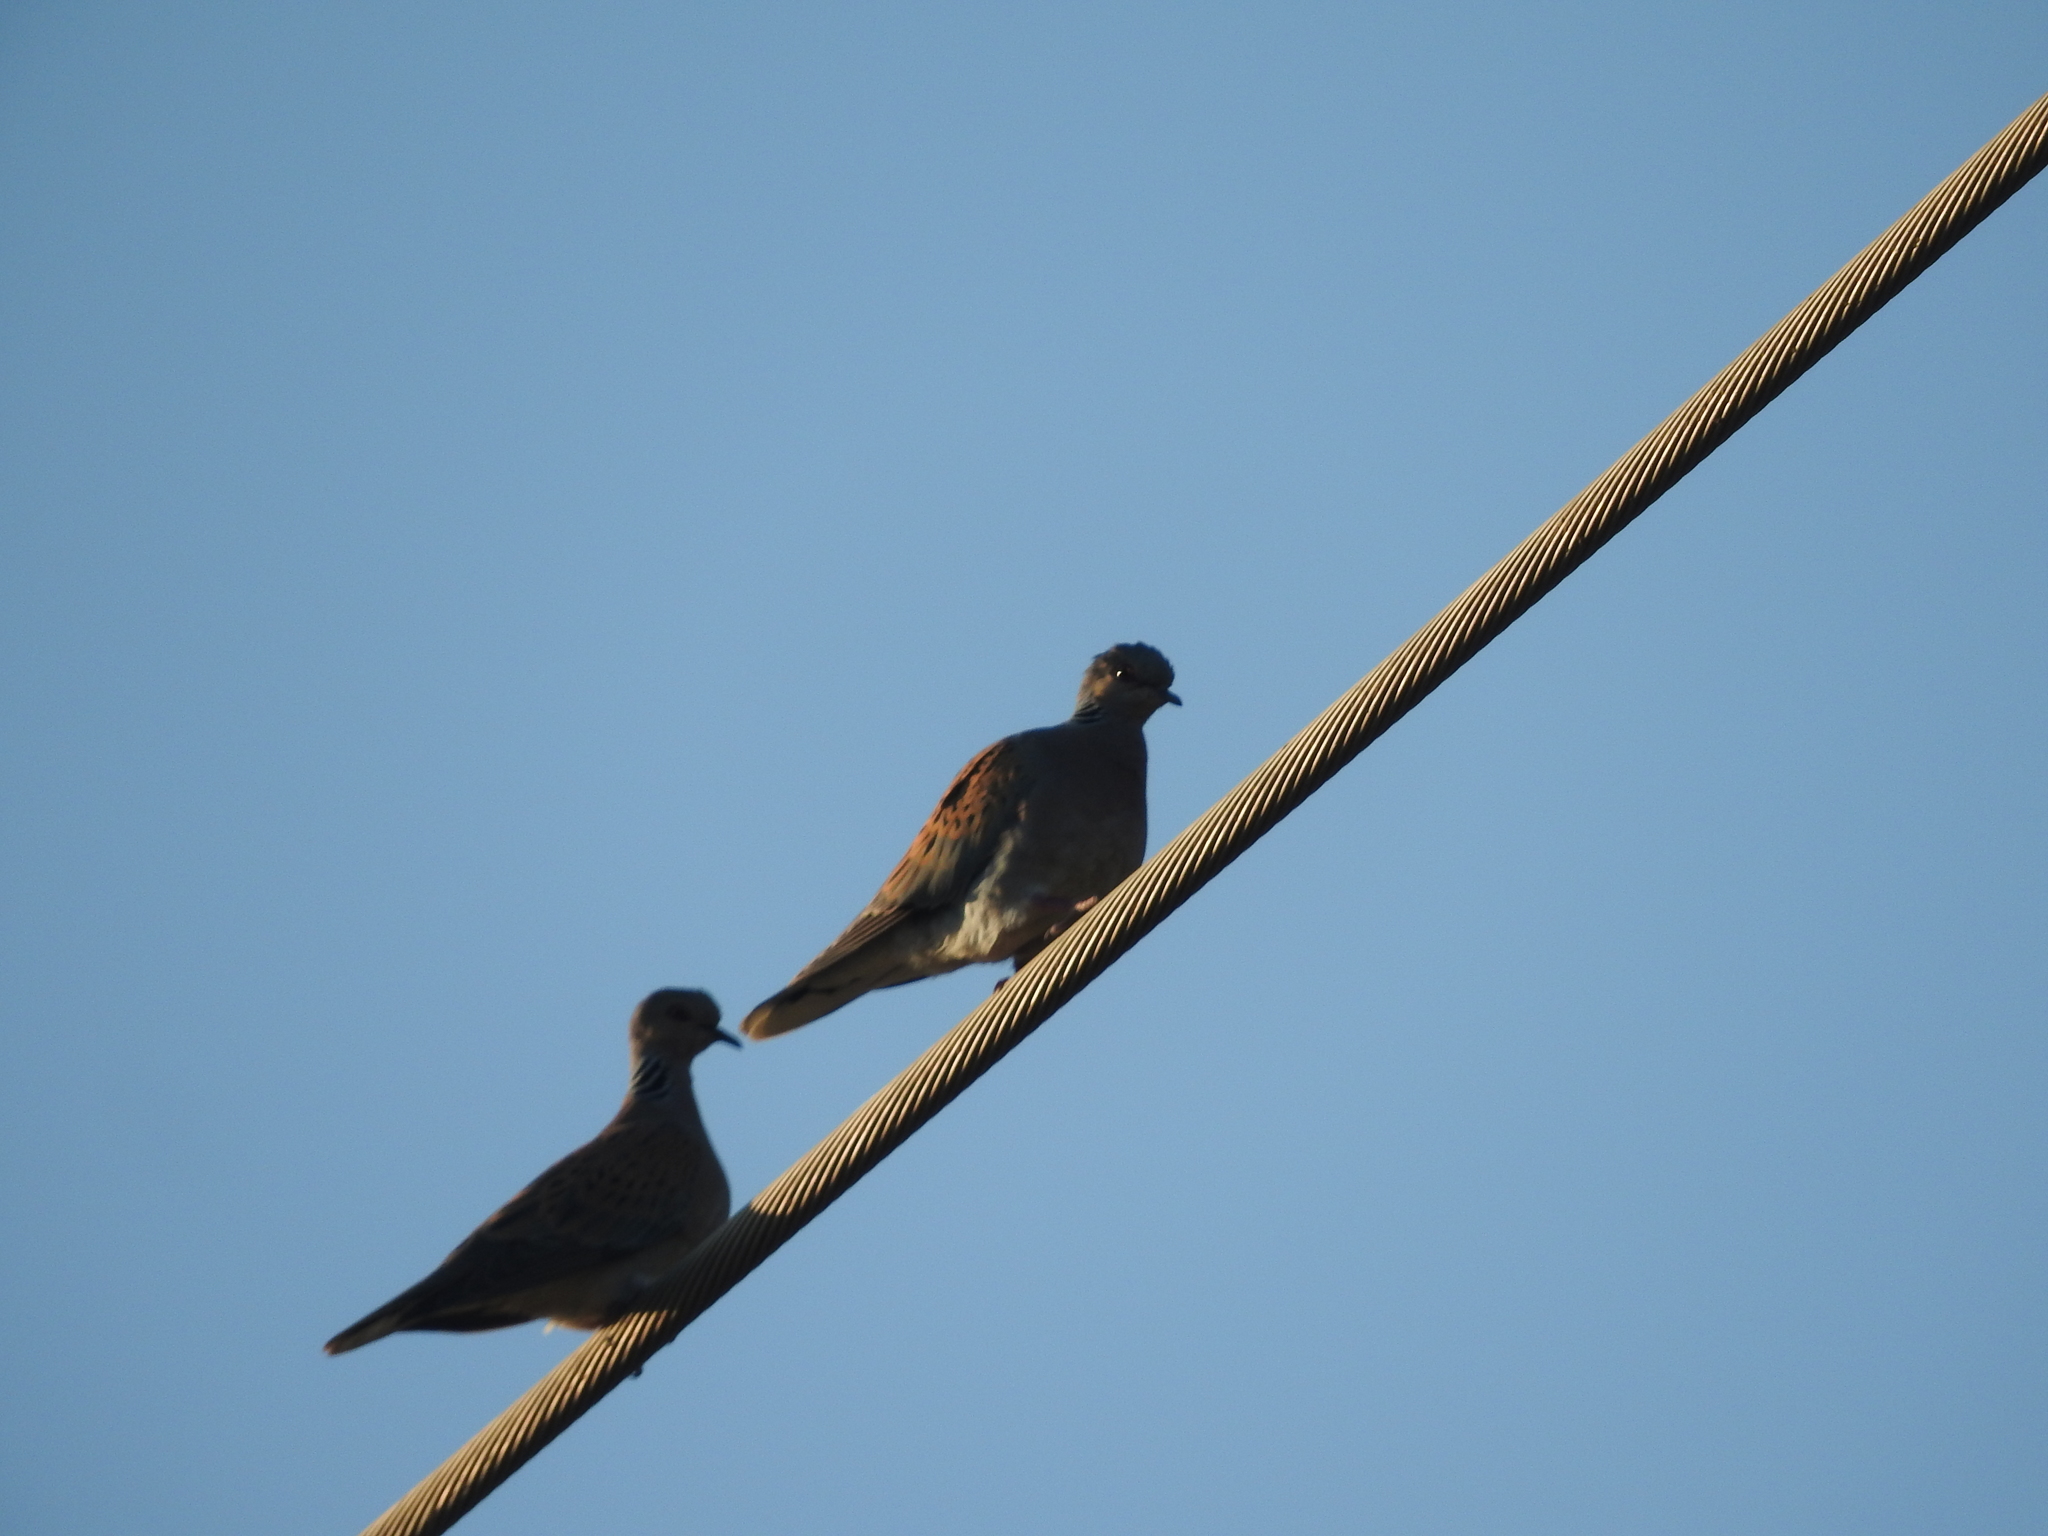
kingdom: Animalia
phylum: Chordata
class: Aves
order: Columbiformes
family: Columbidae
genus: Streptopelia
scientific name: Streptopelia turtur
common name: European turtle dove
